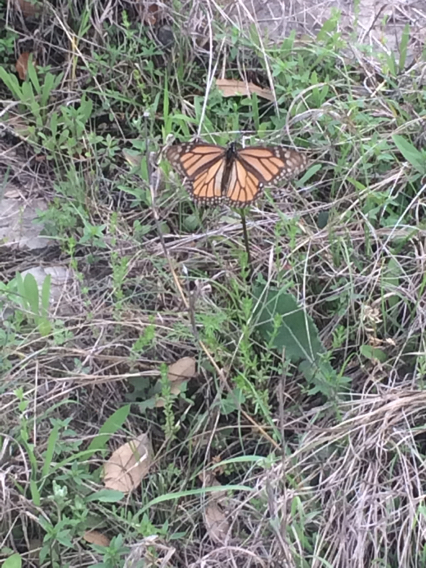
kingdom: Animalia
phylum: Arthropoda
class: Insecta
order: Lepidoptera
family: Nymphalidae
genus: Danaus
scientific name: Danaus plexippus
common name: Monarch
